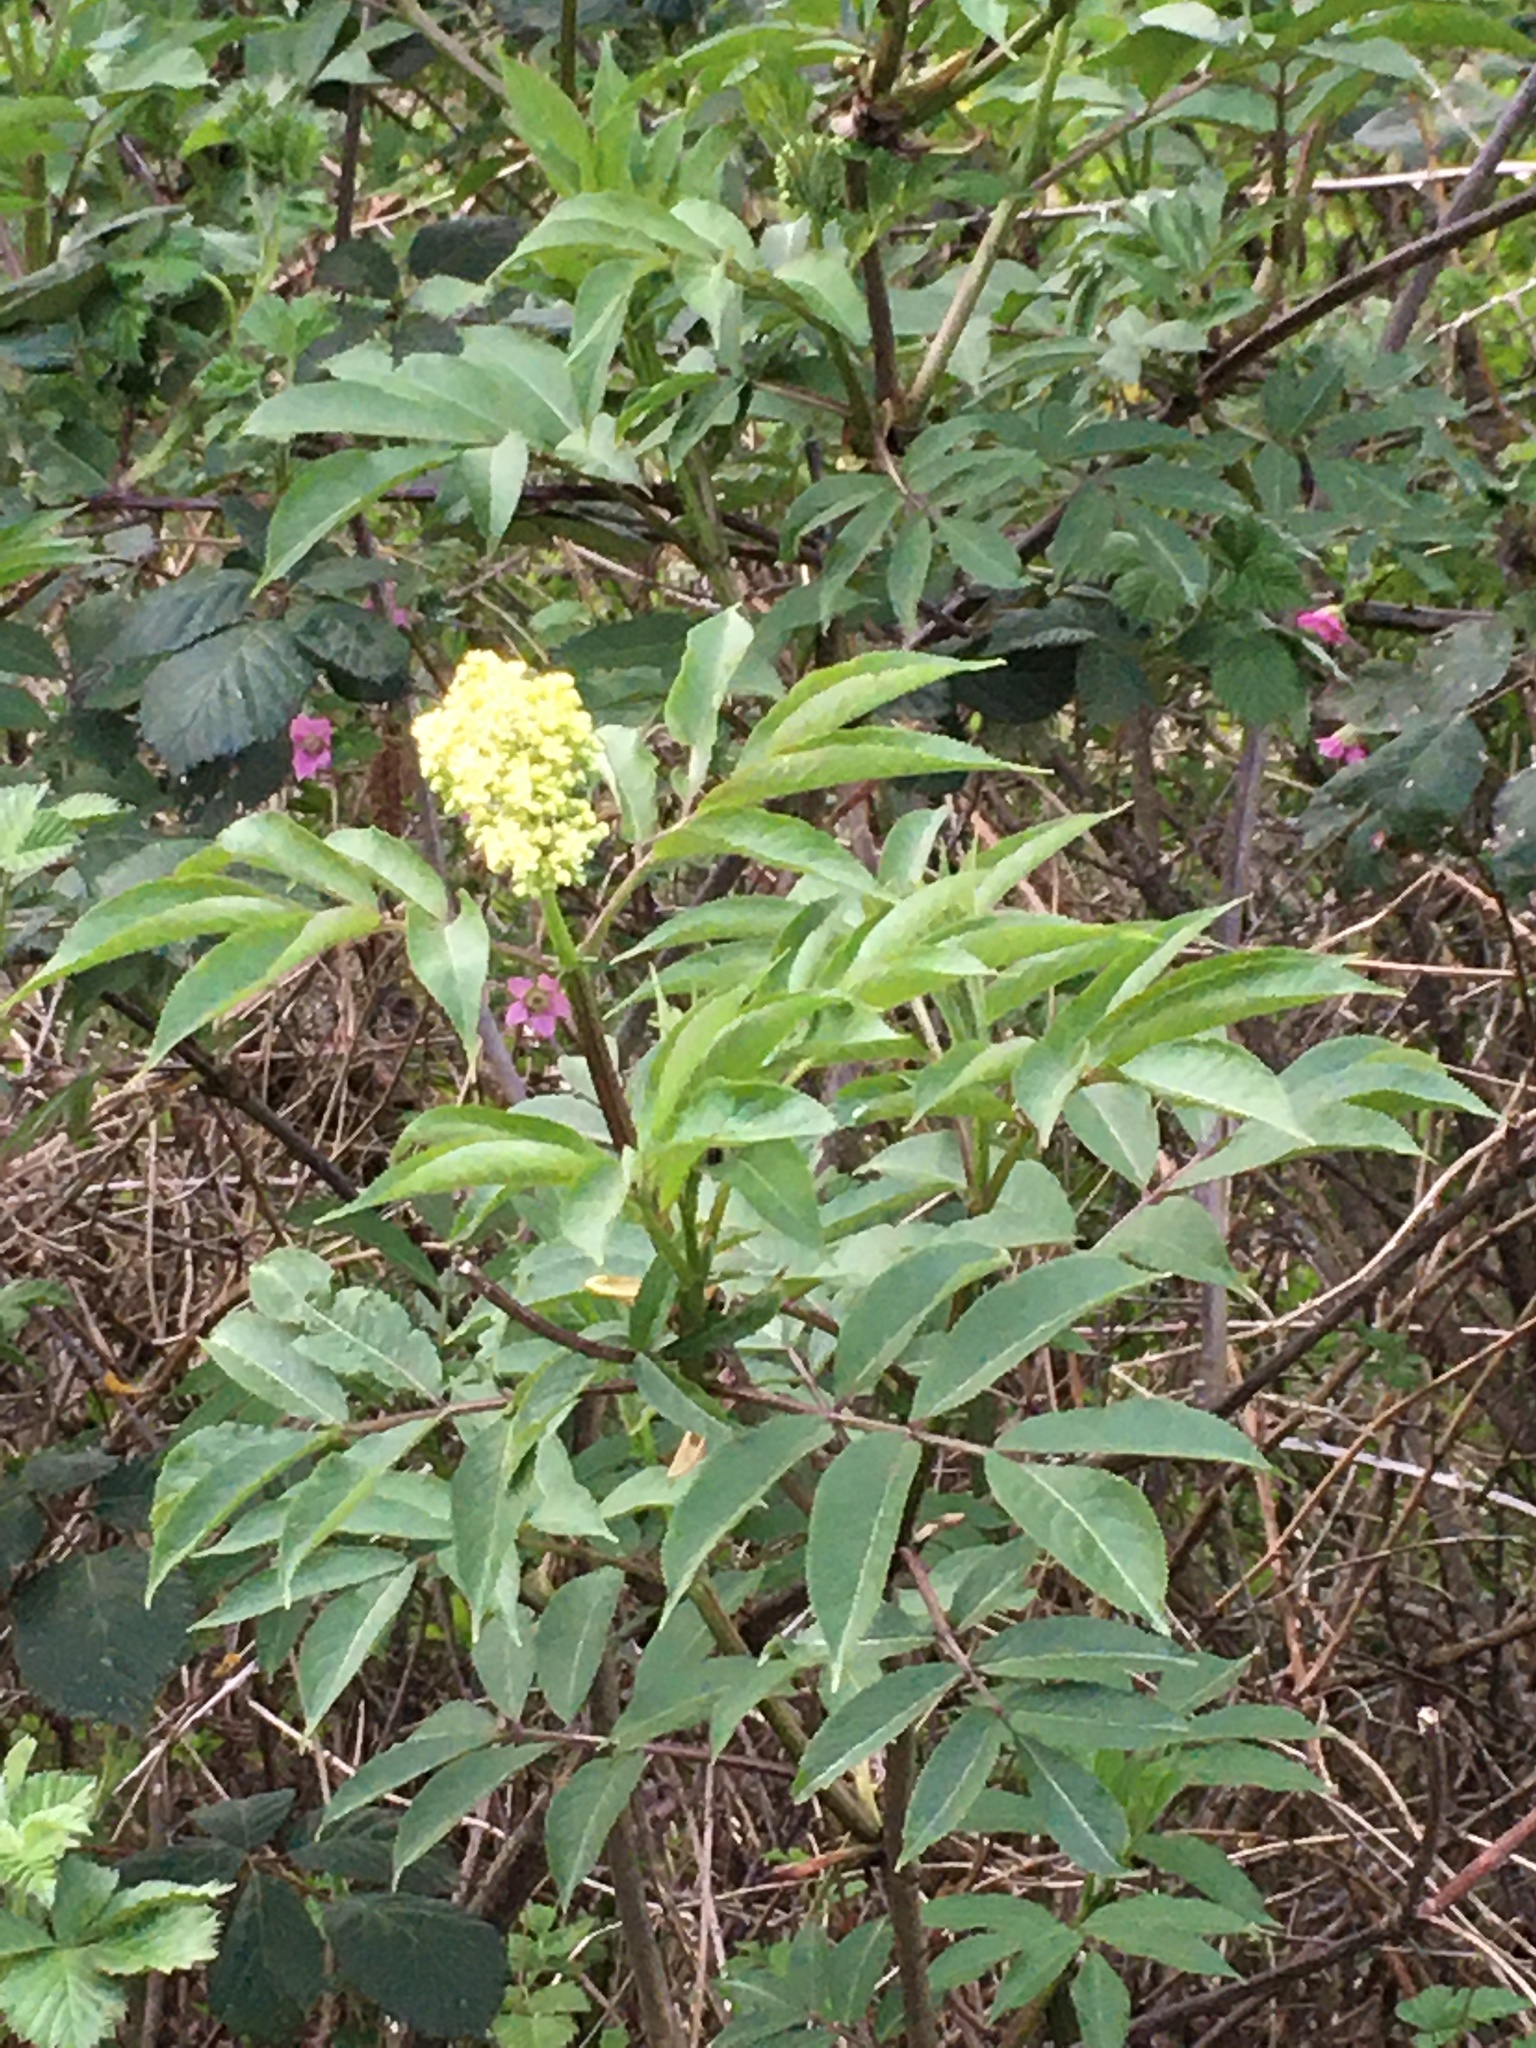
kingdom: Plantae
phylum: Tracheophyta
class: Magnoliopsida
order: Dipsacales
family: Viburnaceae
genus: Sambucus
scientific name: Sambucus racemosa
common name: Red-berried elder
